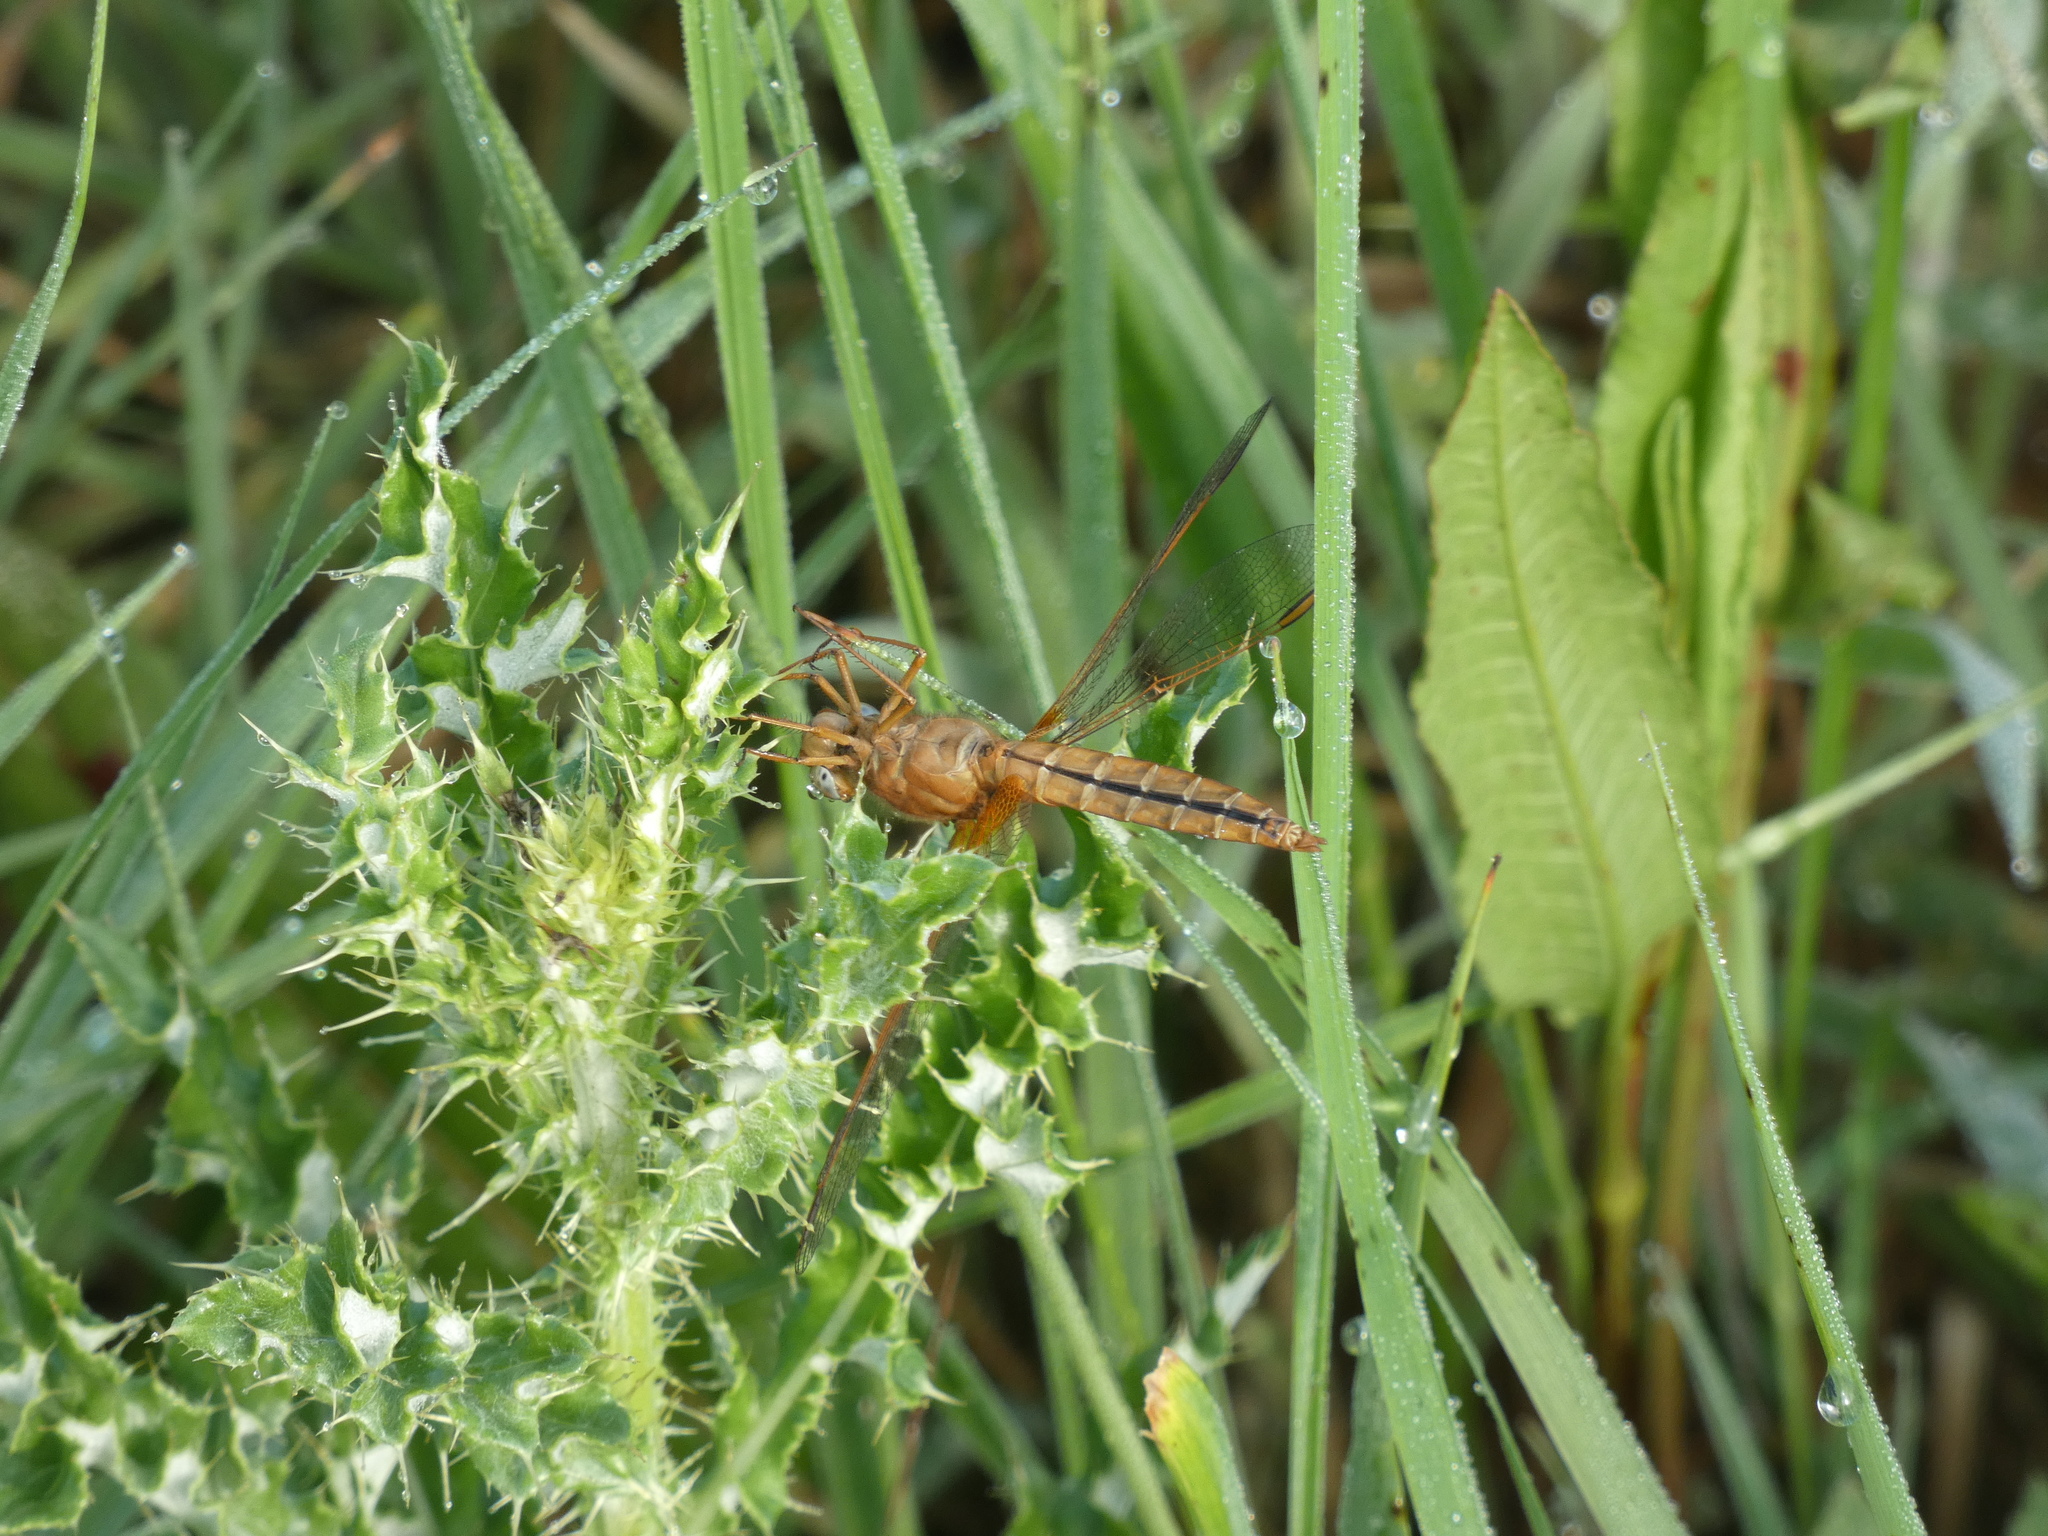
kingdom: Animalia
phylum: Arthropoda
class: Insecta
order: Odonata
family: Libellulidae
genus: Crocothemis
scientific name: Crocothemis erythraea
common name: Scarlet dragonfly
